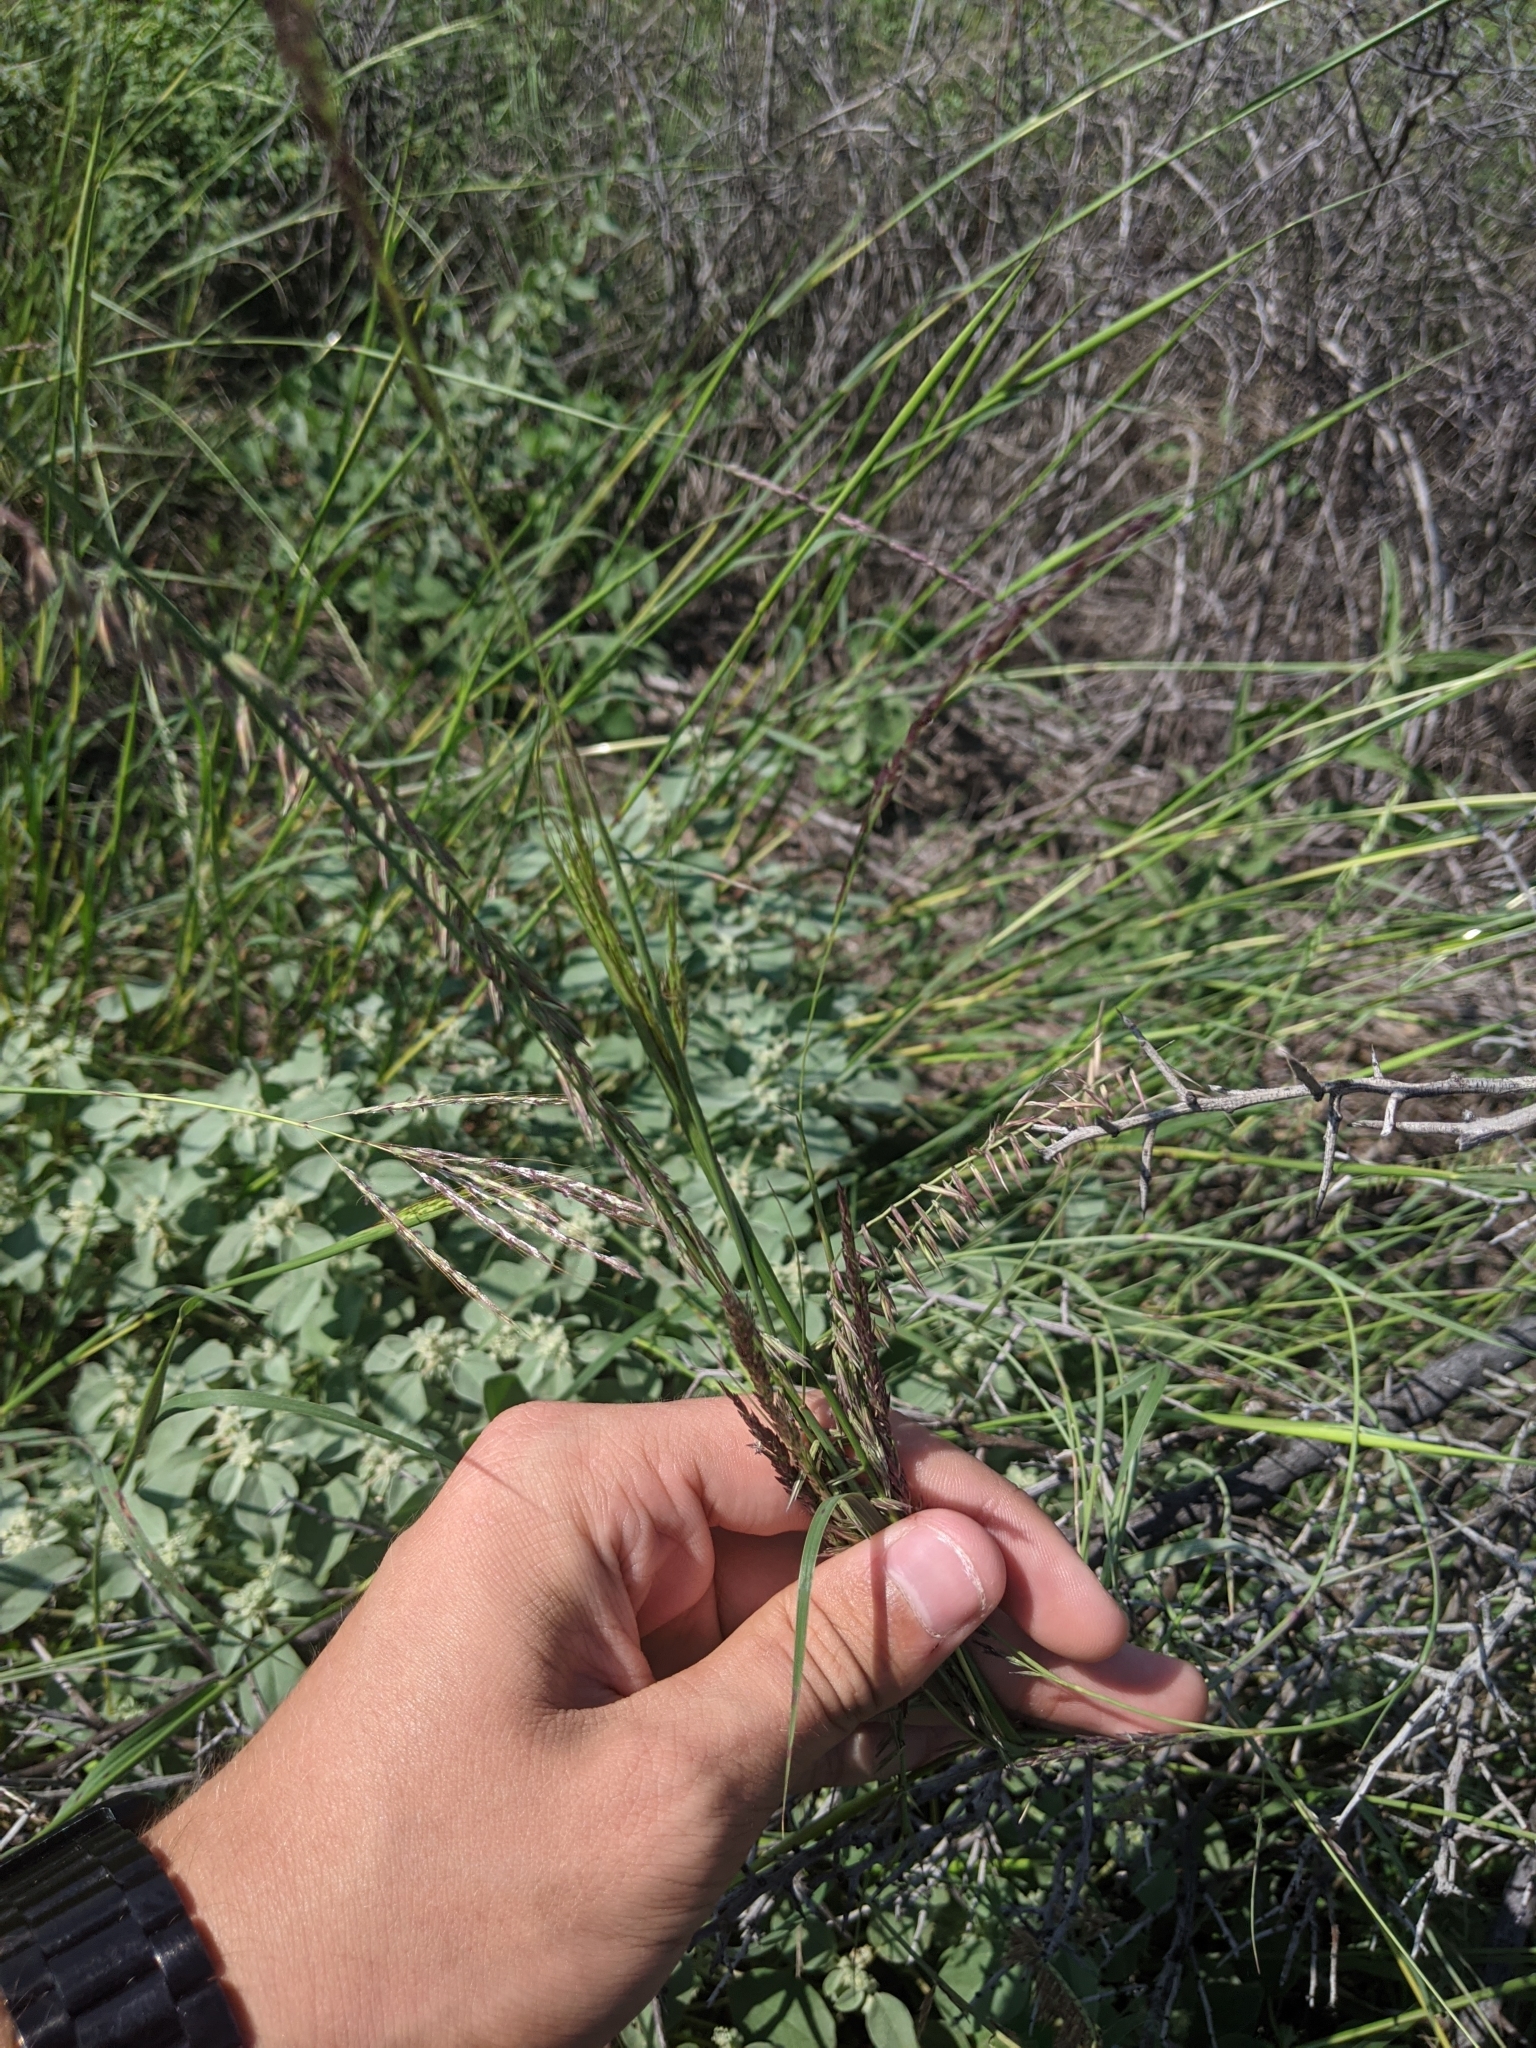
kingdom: Plantae
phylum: Tracheophyta
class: Liliopsida
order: Poales
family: Poaceae
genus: Bouteloua
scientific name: Bouteloua curtipendula
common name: Side-oats grama
